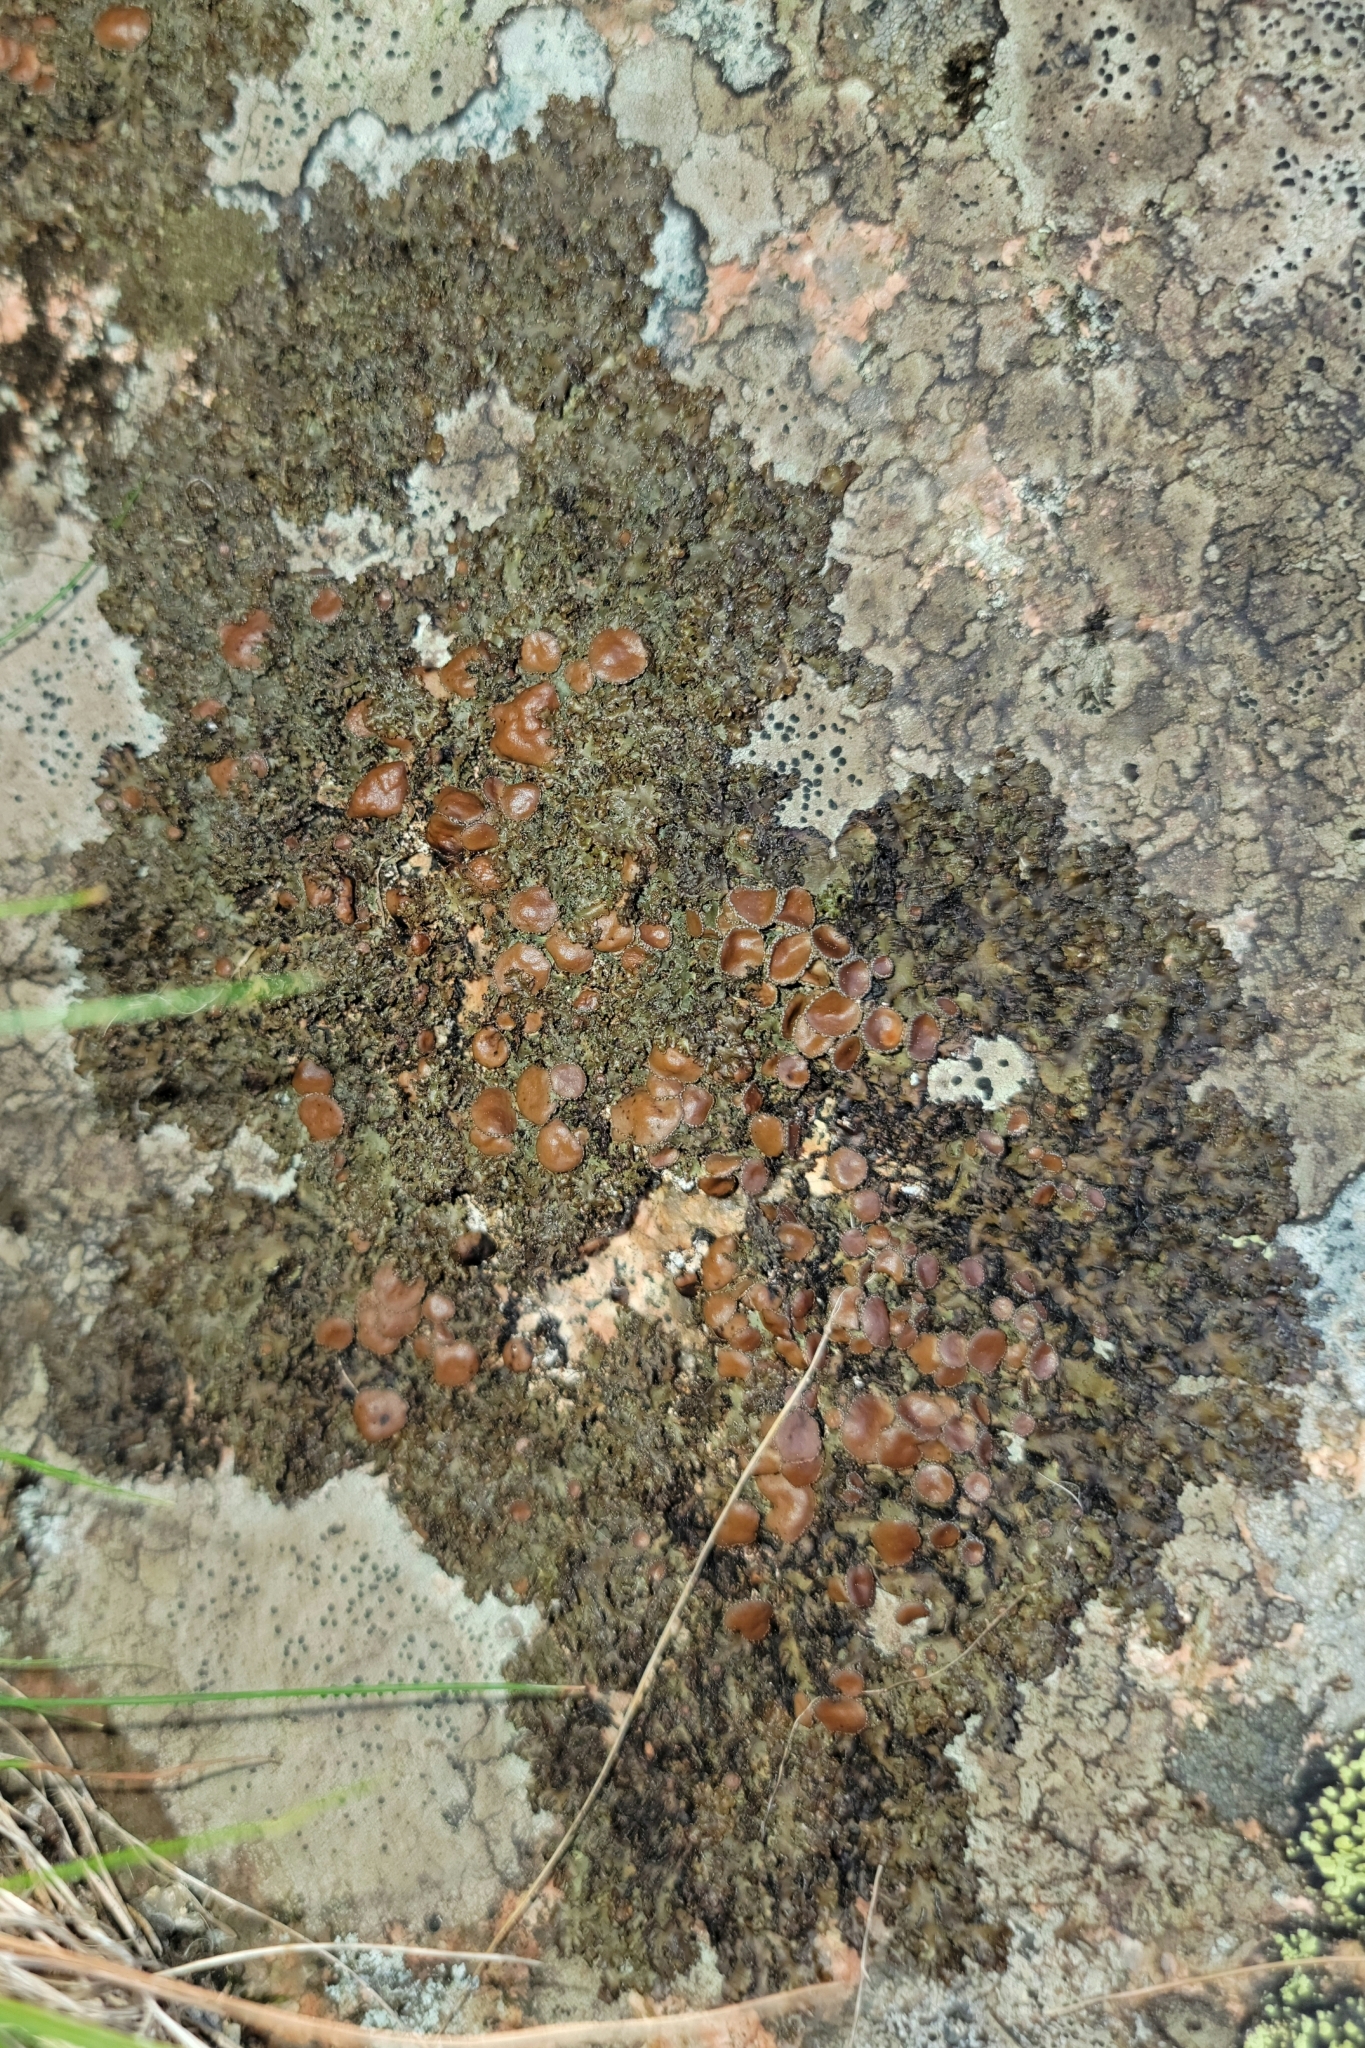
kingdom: Fungi
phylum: Ascomycota
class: Lecanoromycetes
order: Lecanorales
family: Parmeliaceae
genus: Melanelia
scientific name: Melanelia hepatizon
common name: Rimmed camouflage lichen
